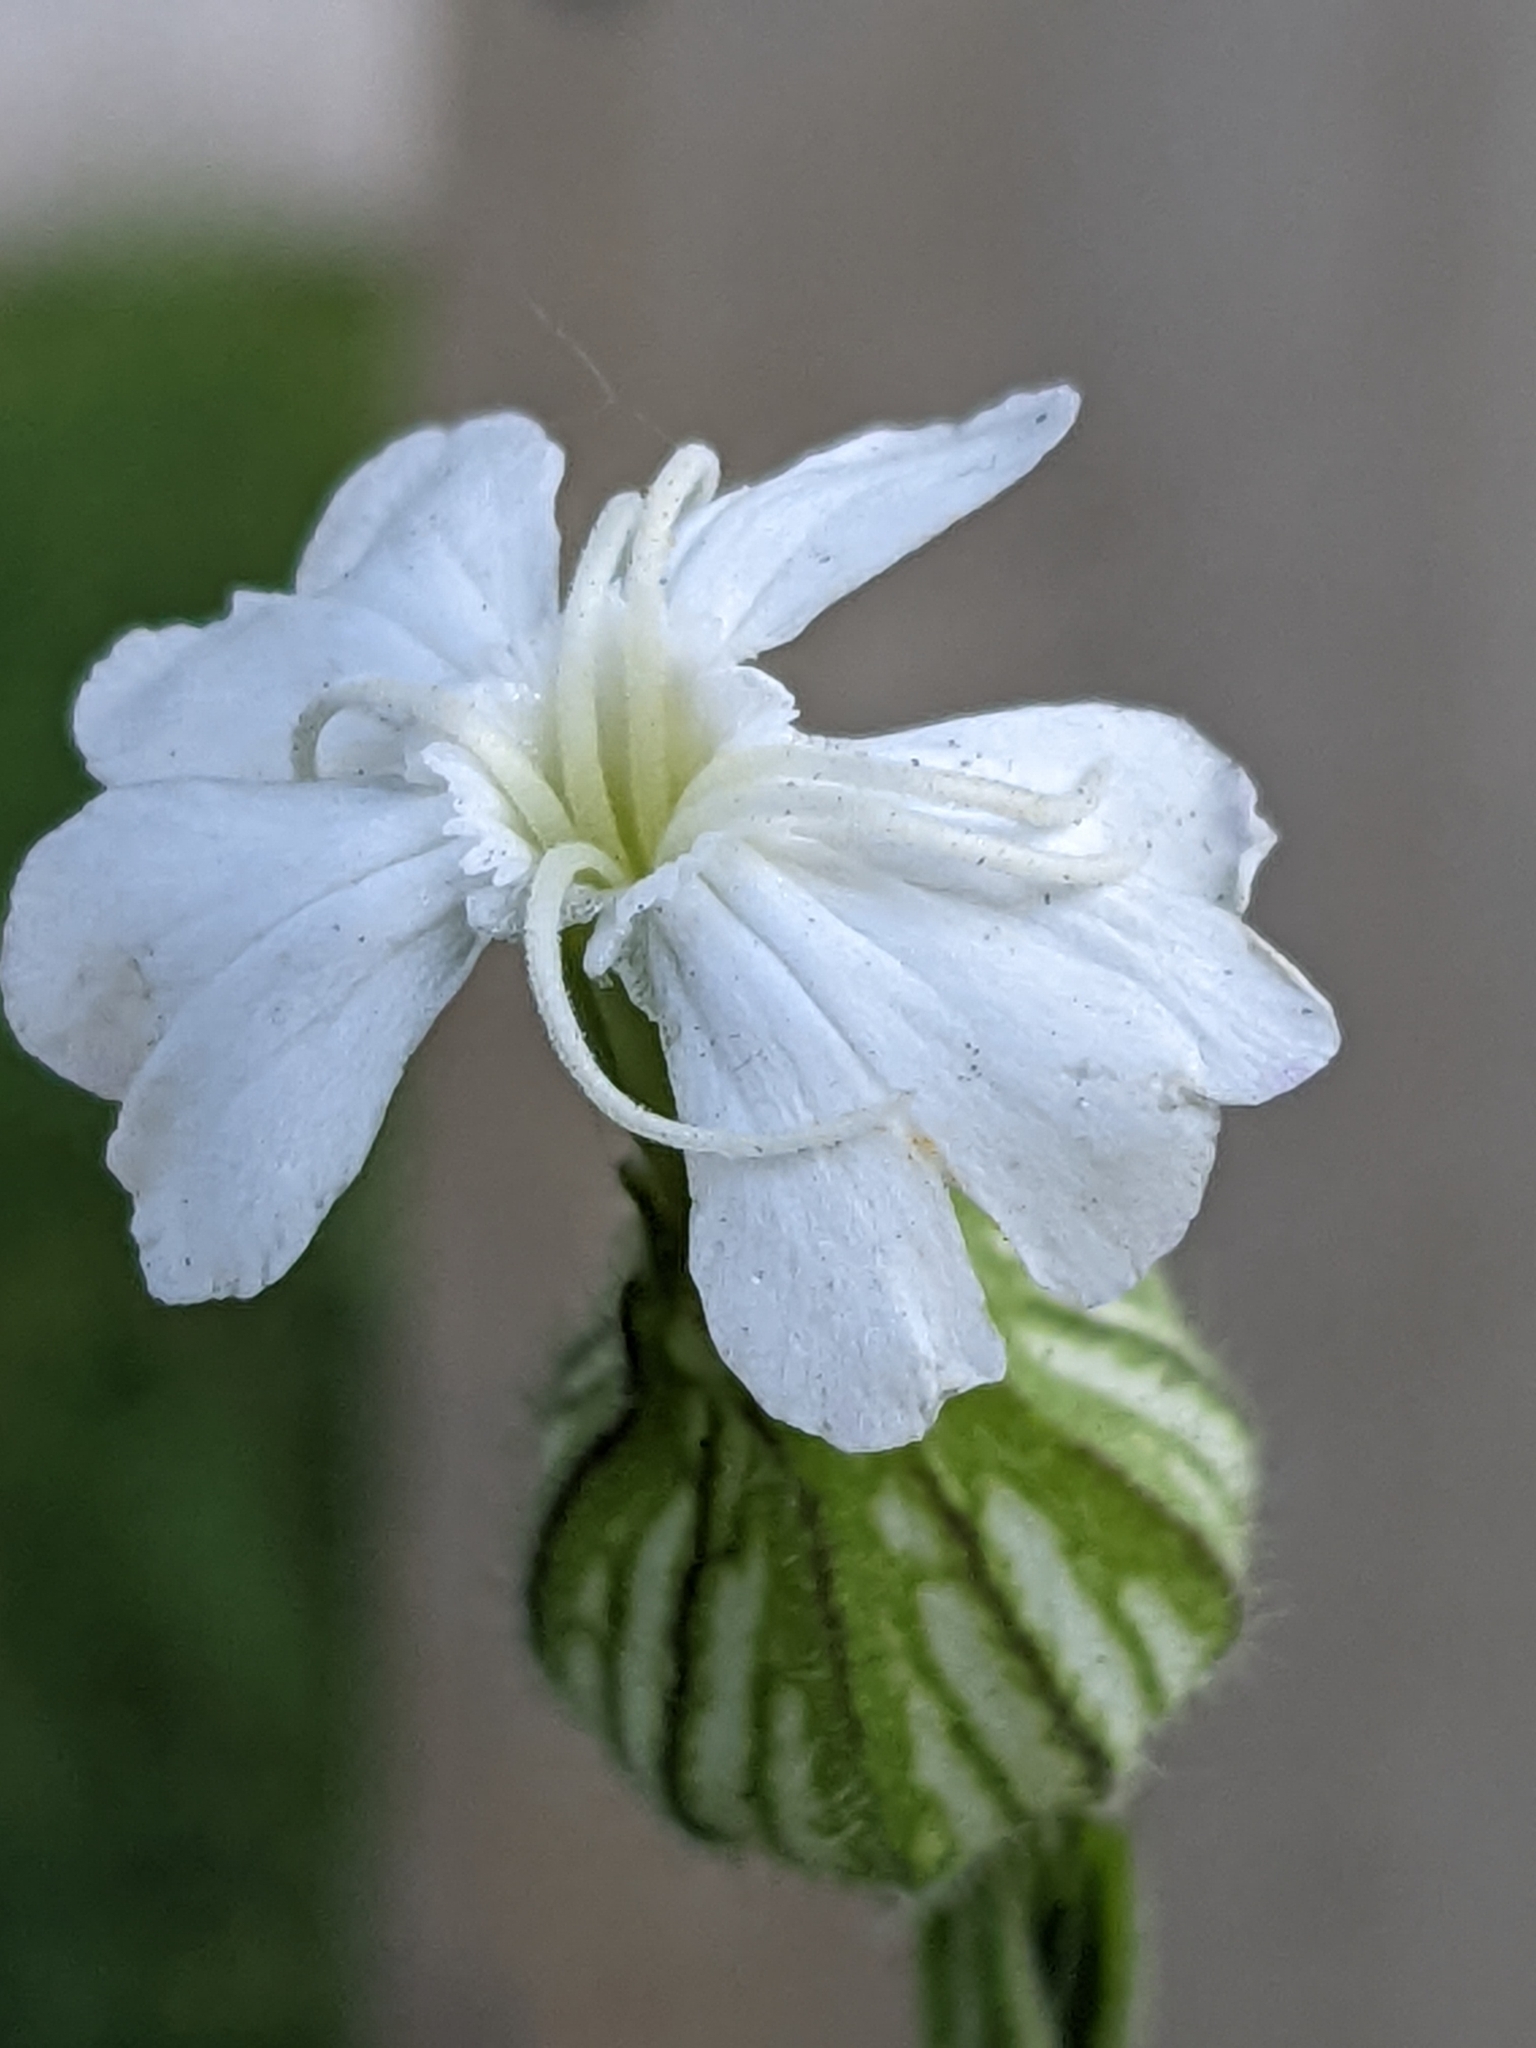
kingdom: Plantae
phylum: Tracheophyta
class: Magnoliopsida
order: Caryophyllales
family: Caryophyllaceae
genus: Silene
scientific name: Silene latifolia
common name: White campion
